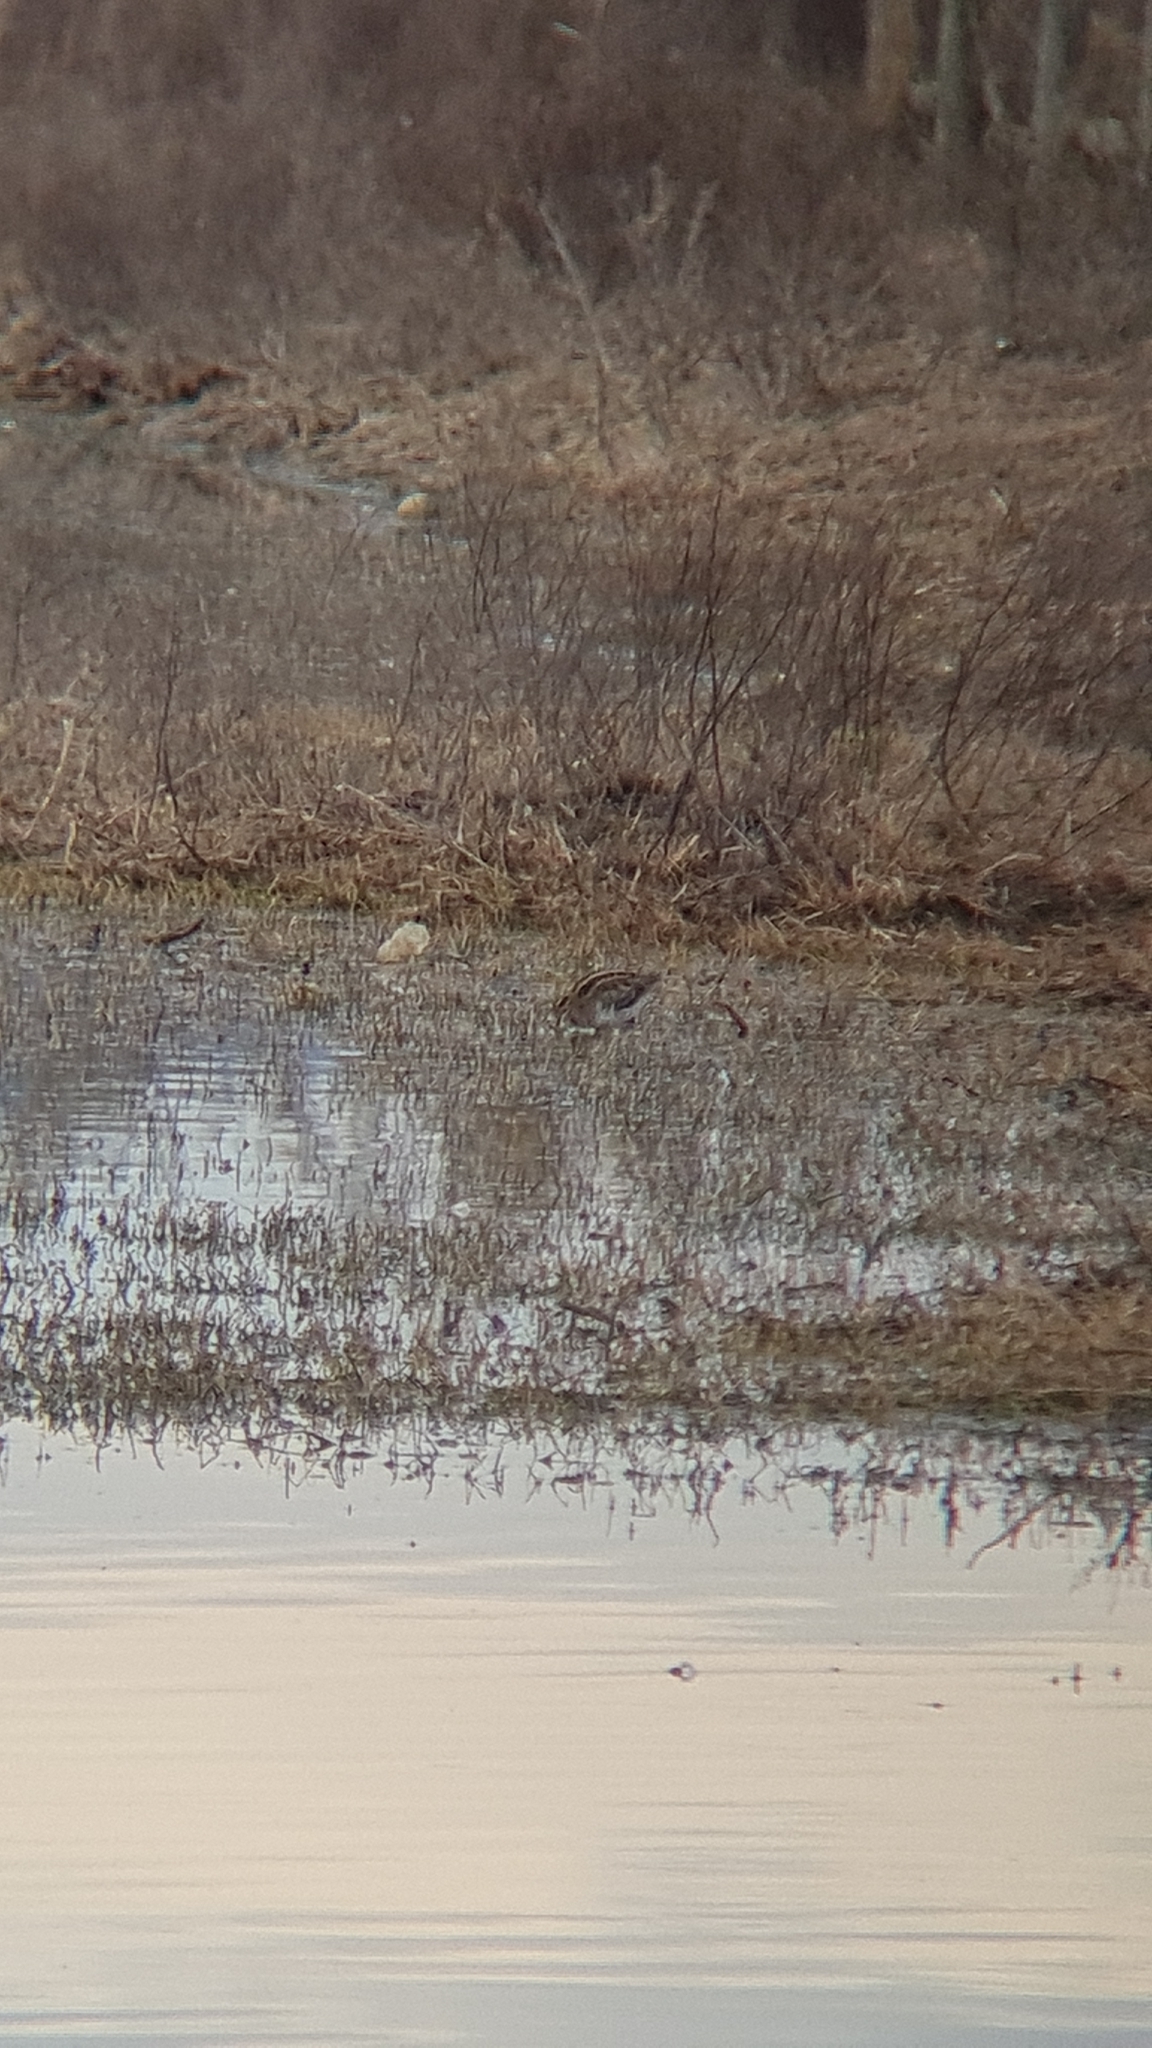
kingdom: Animalia
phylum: Chordata
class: Aves
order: Charadriiformes
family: Scolopacidae
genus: Gallinago
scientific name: Gallinago gallinago
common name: Common snipe
